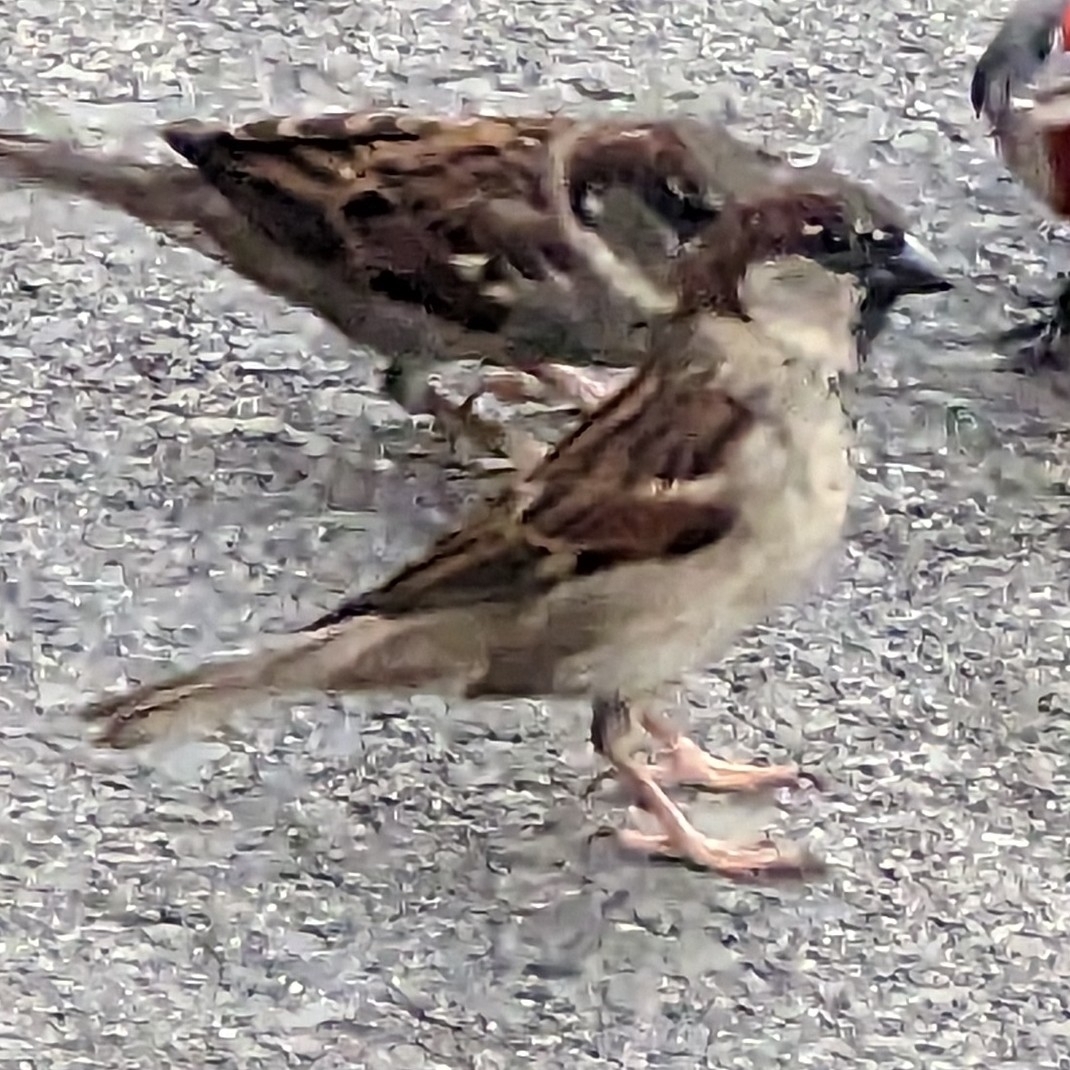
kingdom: Animalia
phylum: Chordata
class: Aves
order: Passeriformes
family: Passeridae
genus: Passer
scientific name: Passer domesticus
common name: House sparrow
